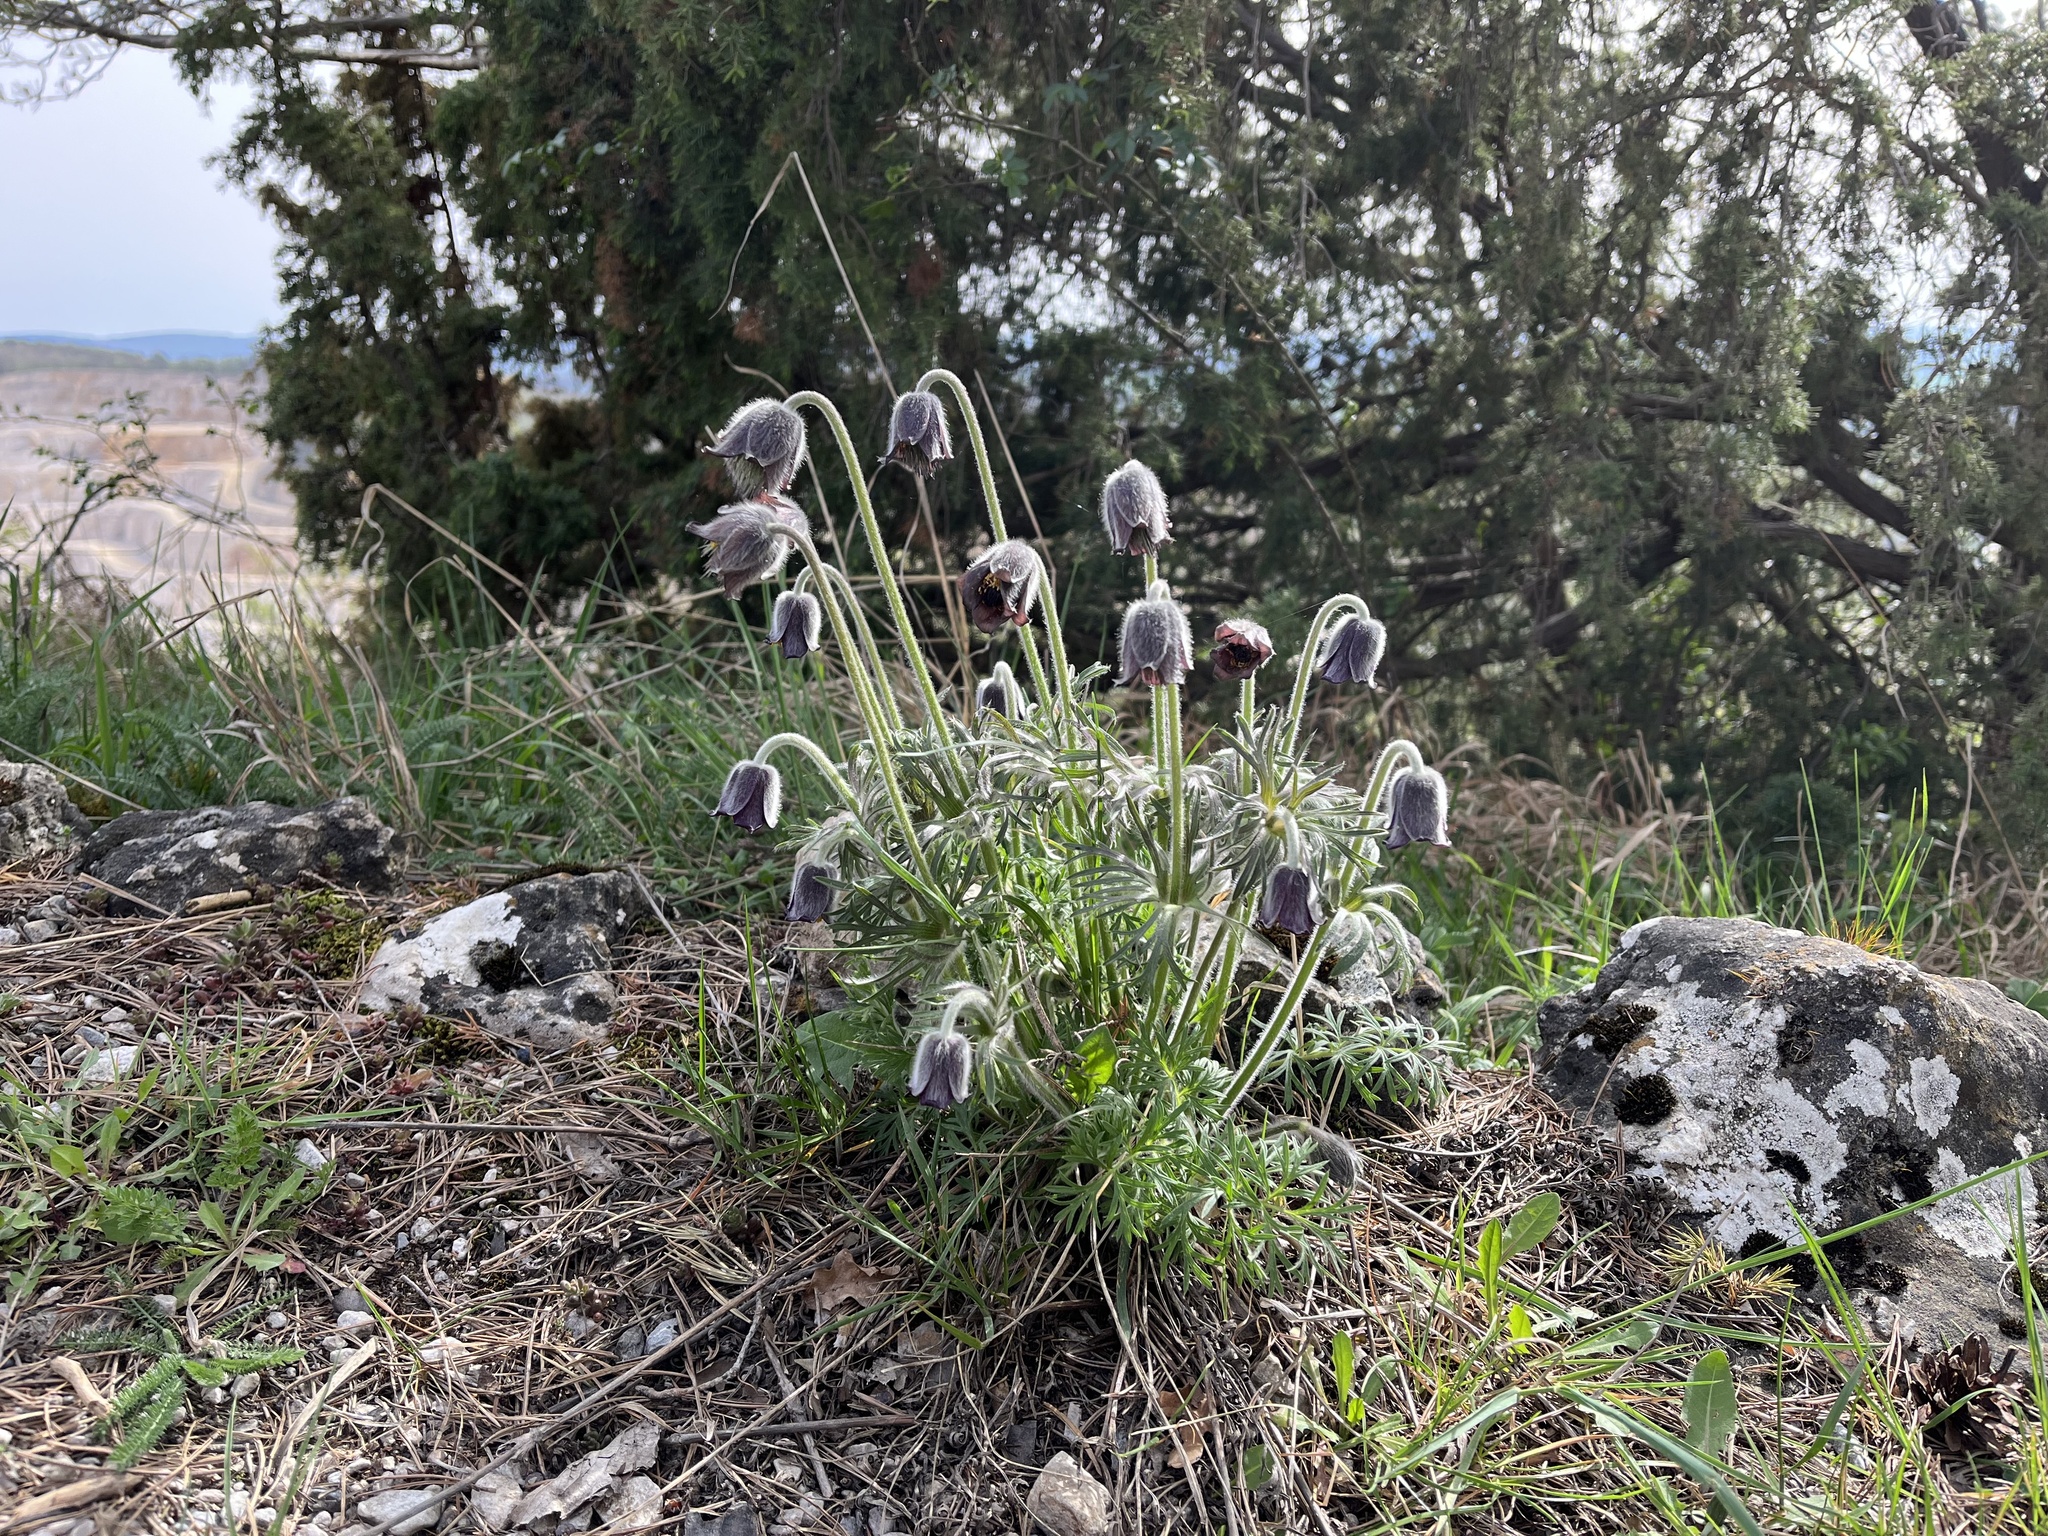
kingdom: Plantae
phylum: Tracheophyta
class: Magnoliopsida
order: Ranunculales
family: Ranunculaceae
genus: Pulsatilla
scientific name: Pulsatilla pratensis
